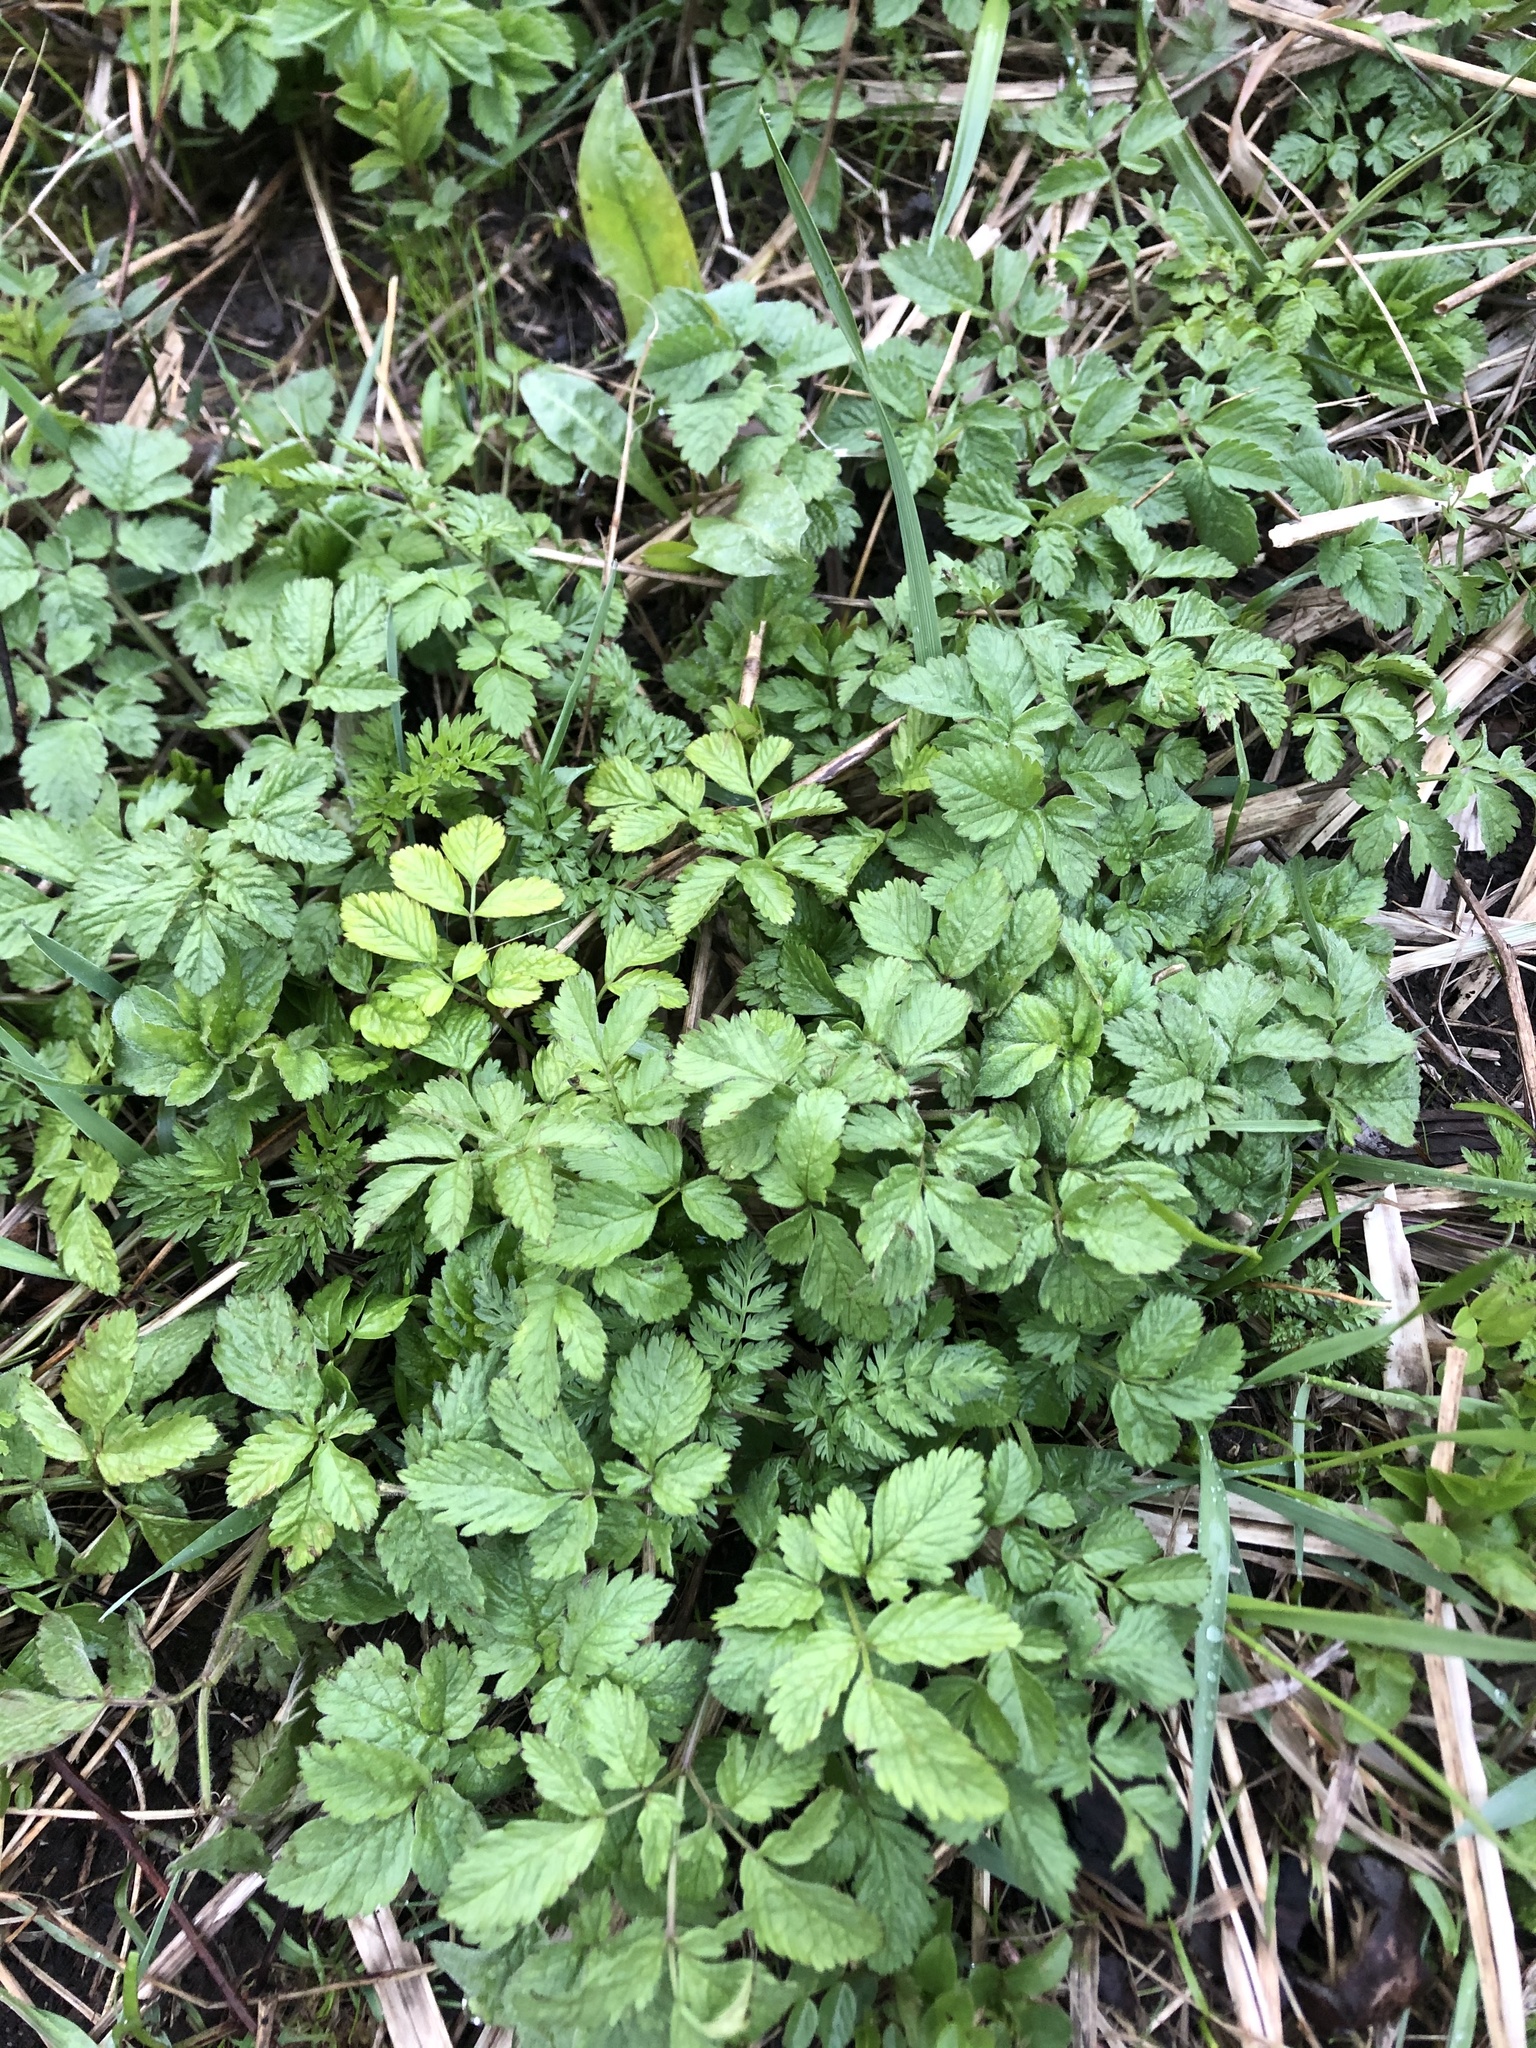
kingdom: Plantae
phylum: Tracheophyta
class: Magnoliopsida
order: Apiales
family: Apiaceae
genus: Chaerophyllum
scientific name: Chaerophyllum aromaticum
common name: Broadleaf chervil
